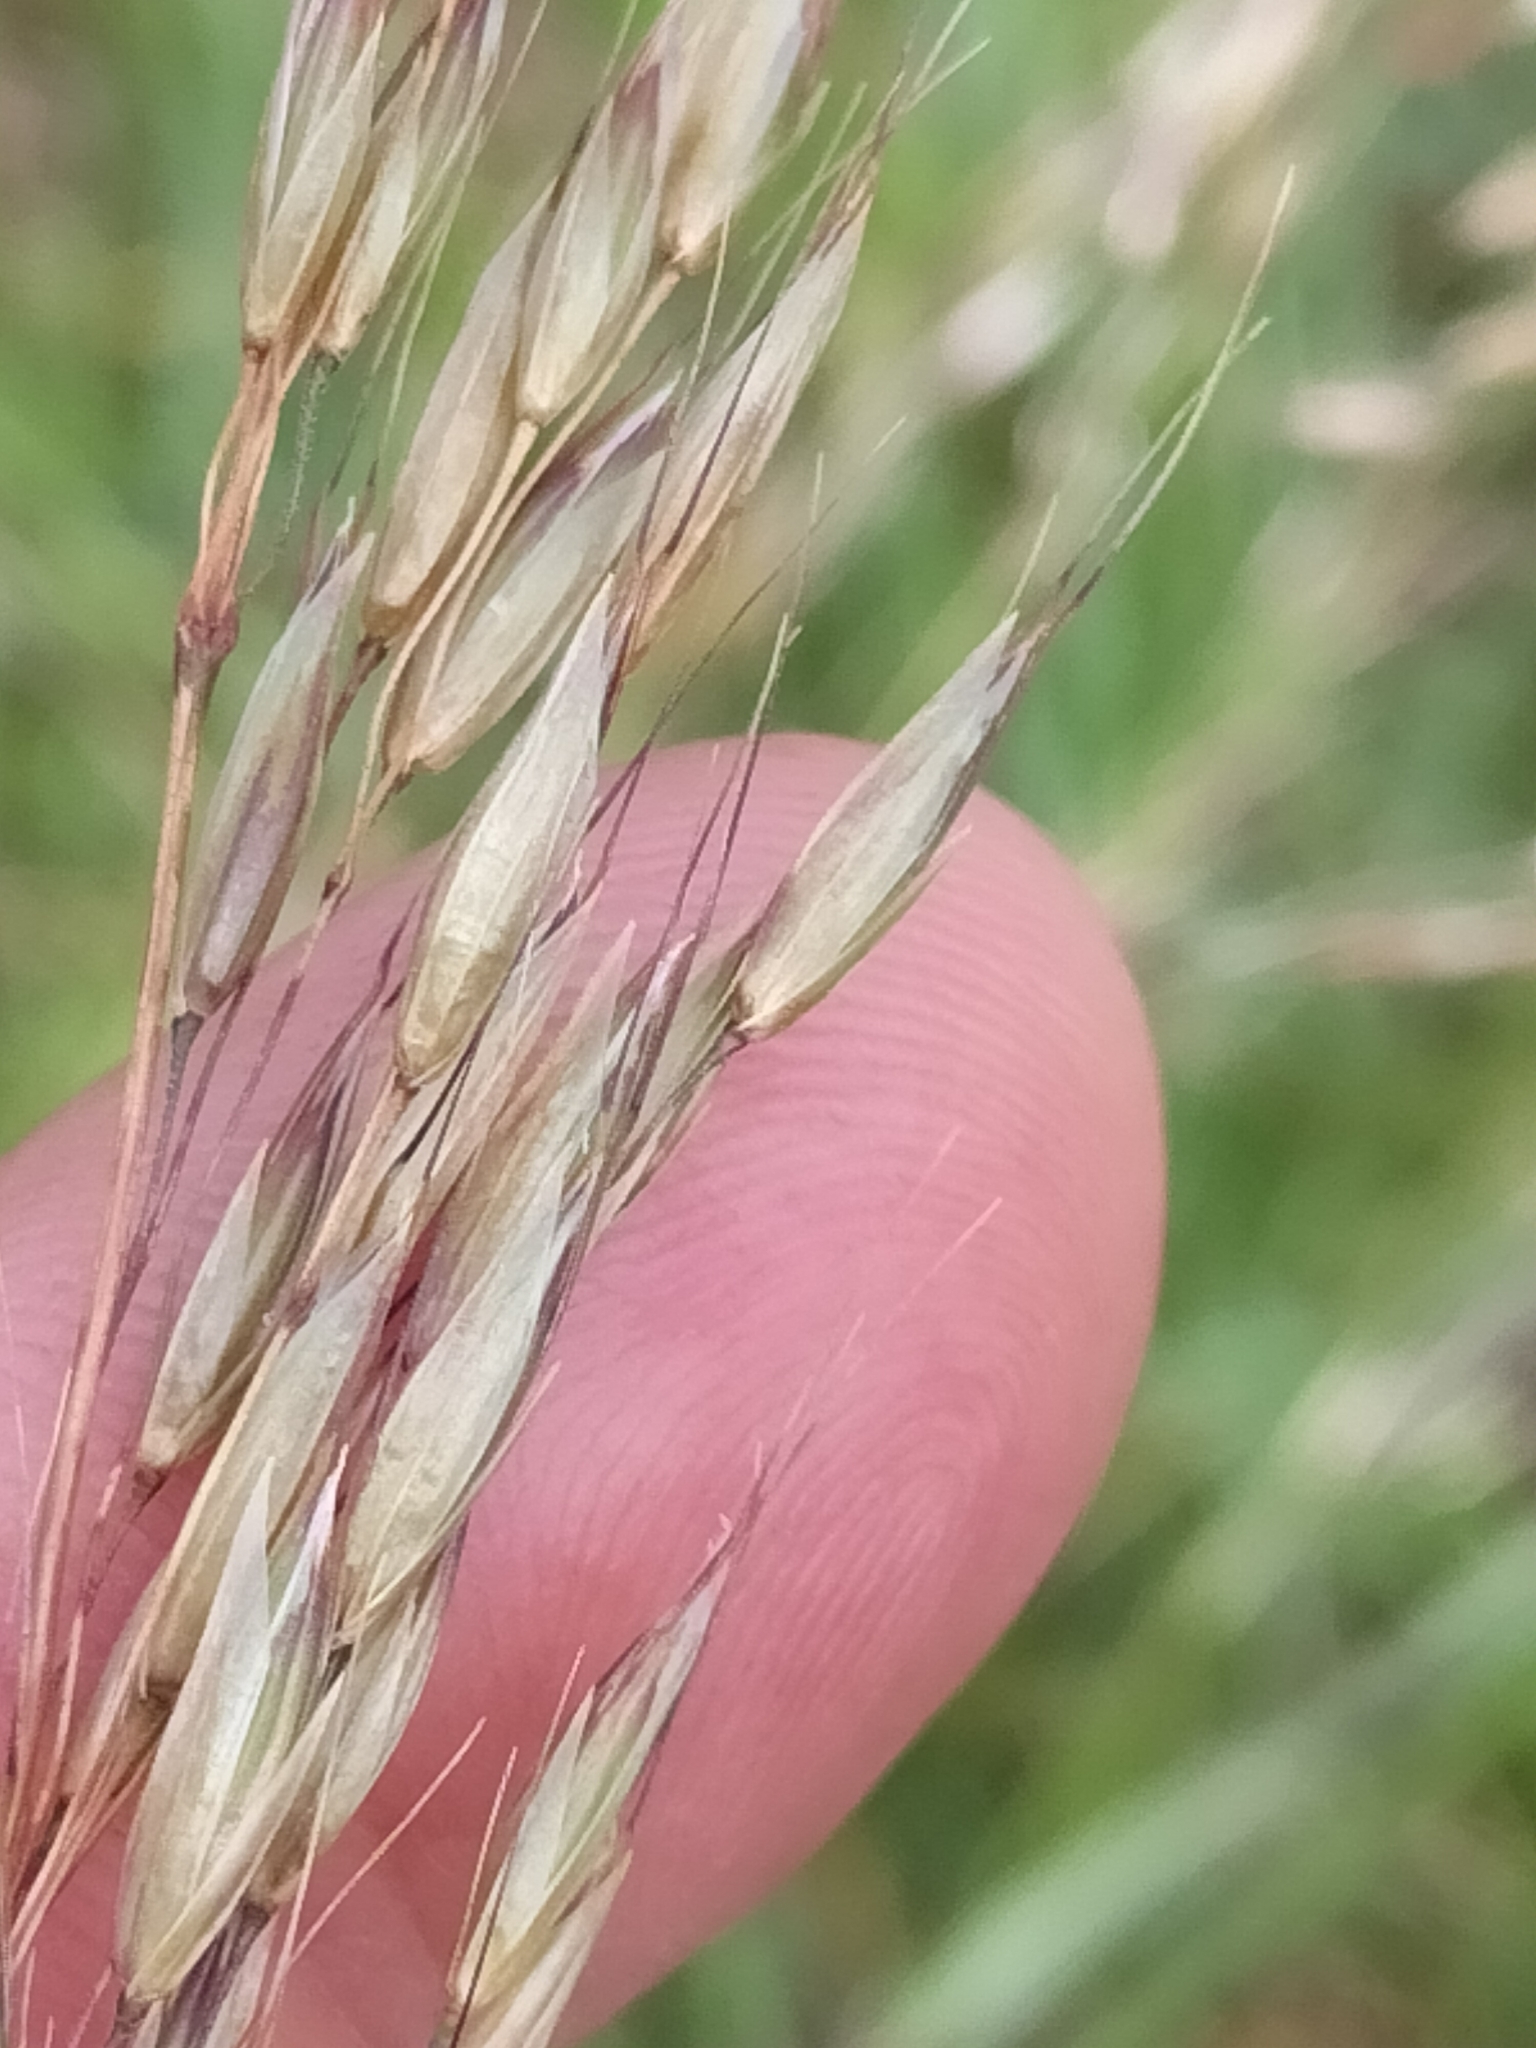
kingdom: Plantae
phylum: Tracheophyta
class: Liliopsida
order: Poales
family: Poaceae
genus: Arrhenatherum
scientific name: Arrhenatherum elatius
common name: Tall oatgrass
